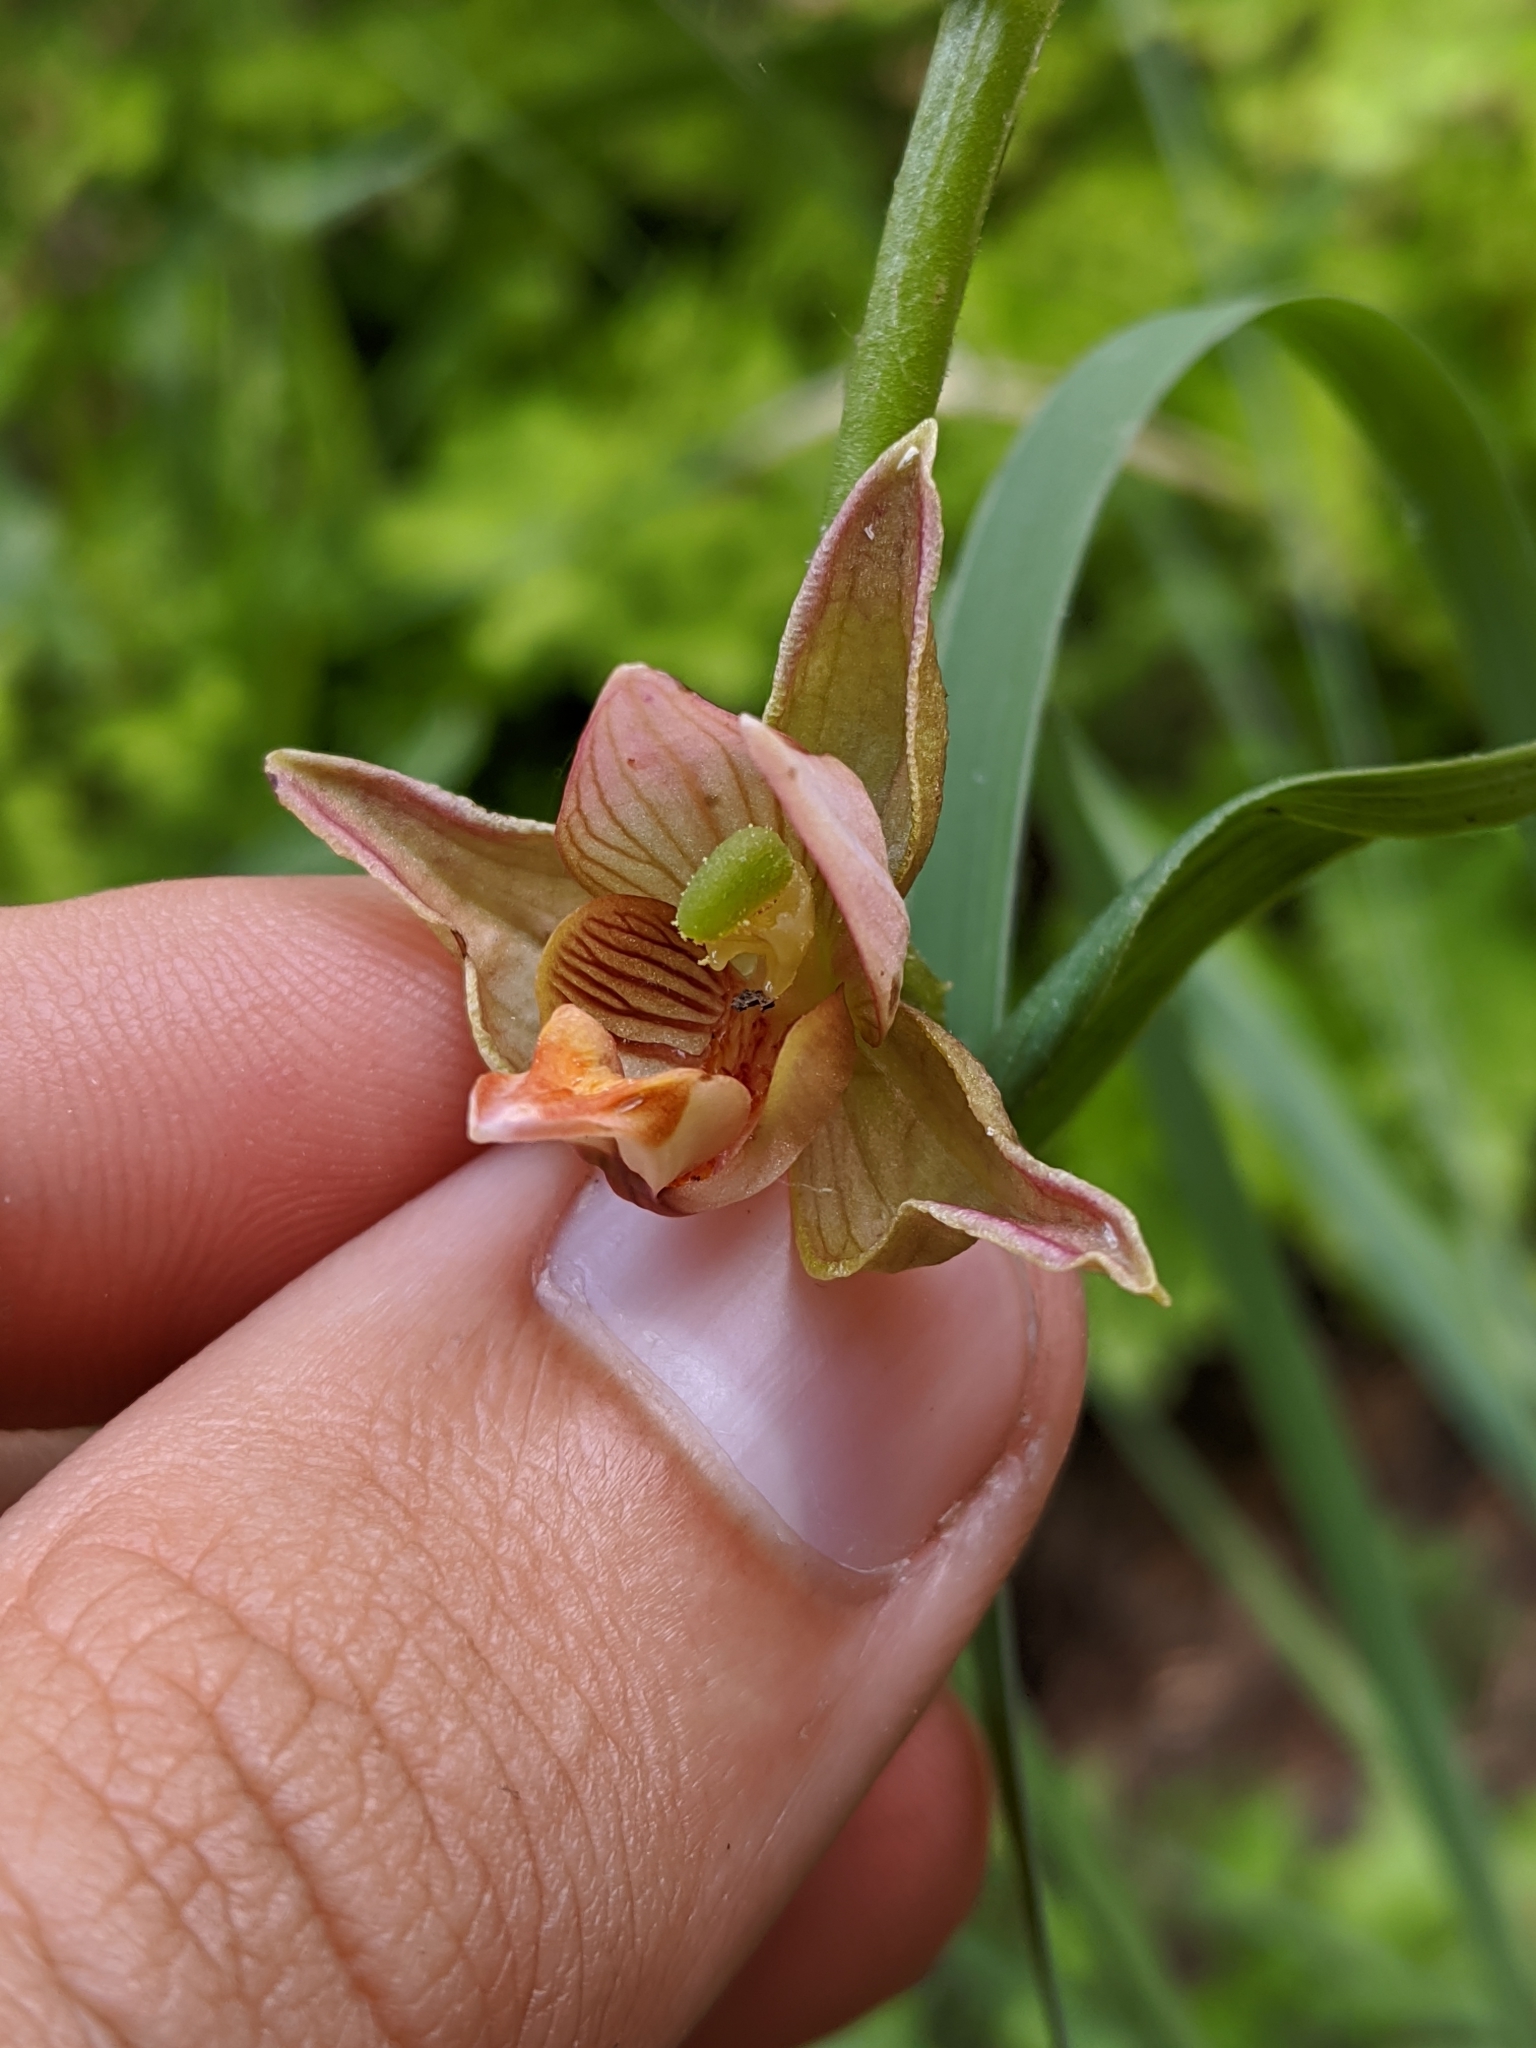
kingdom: Plantae
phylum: Tracheophyta
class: Liliopsida
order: Asparagales
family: Orchidaceae
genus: Epipactis
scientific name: Epipactis gigantea
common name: Chatterbox
